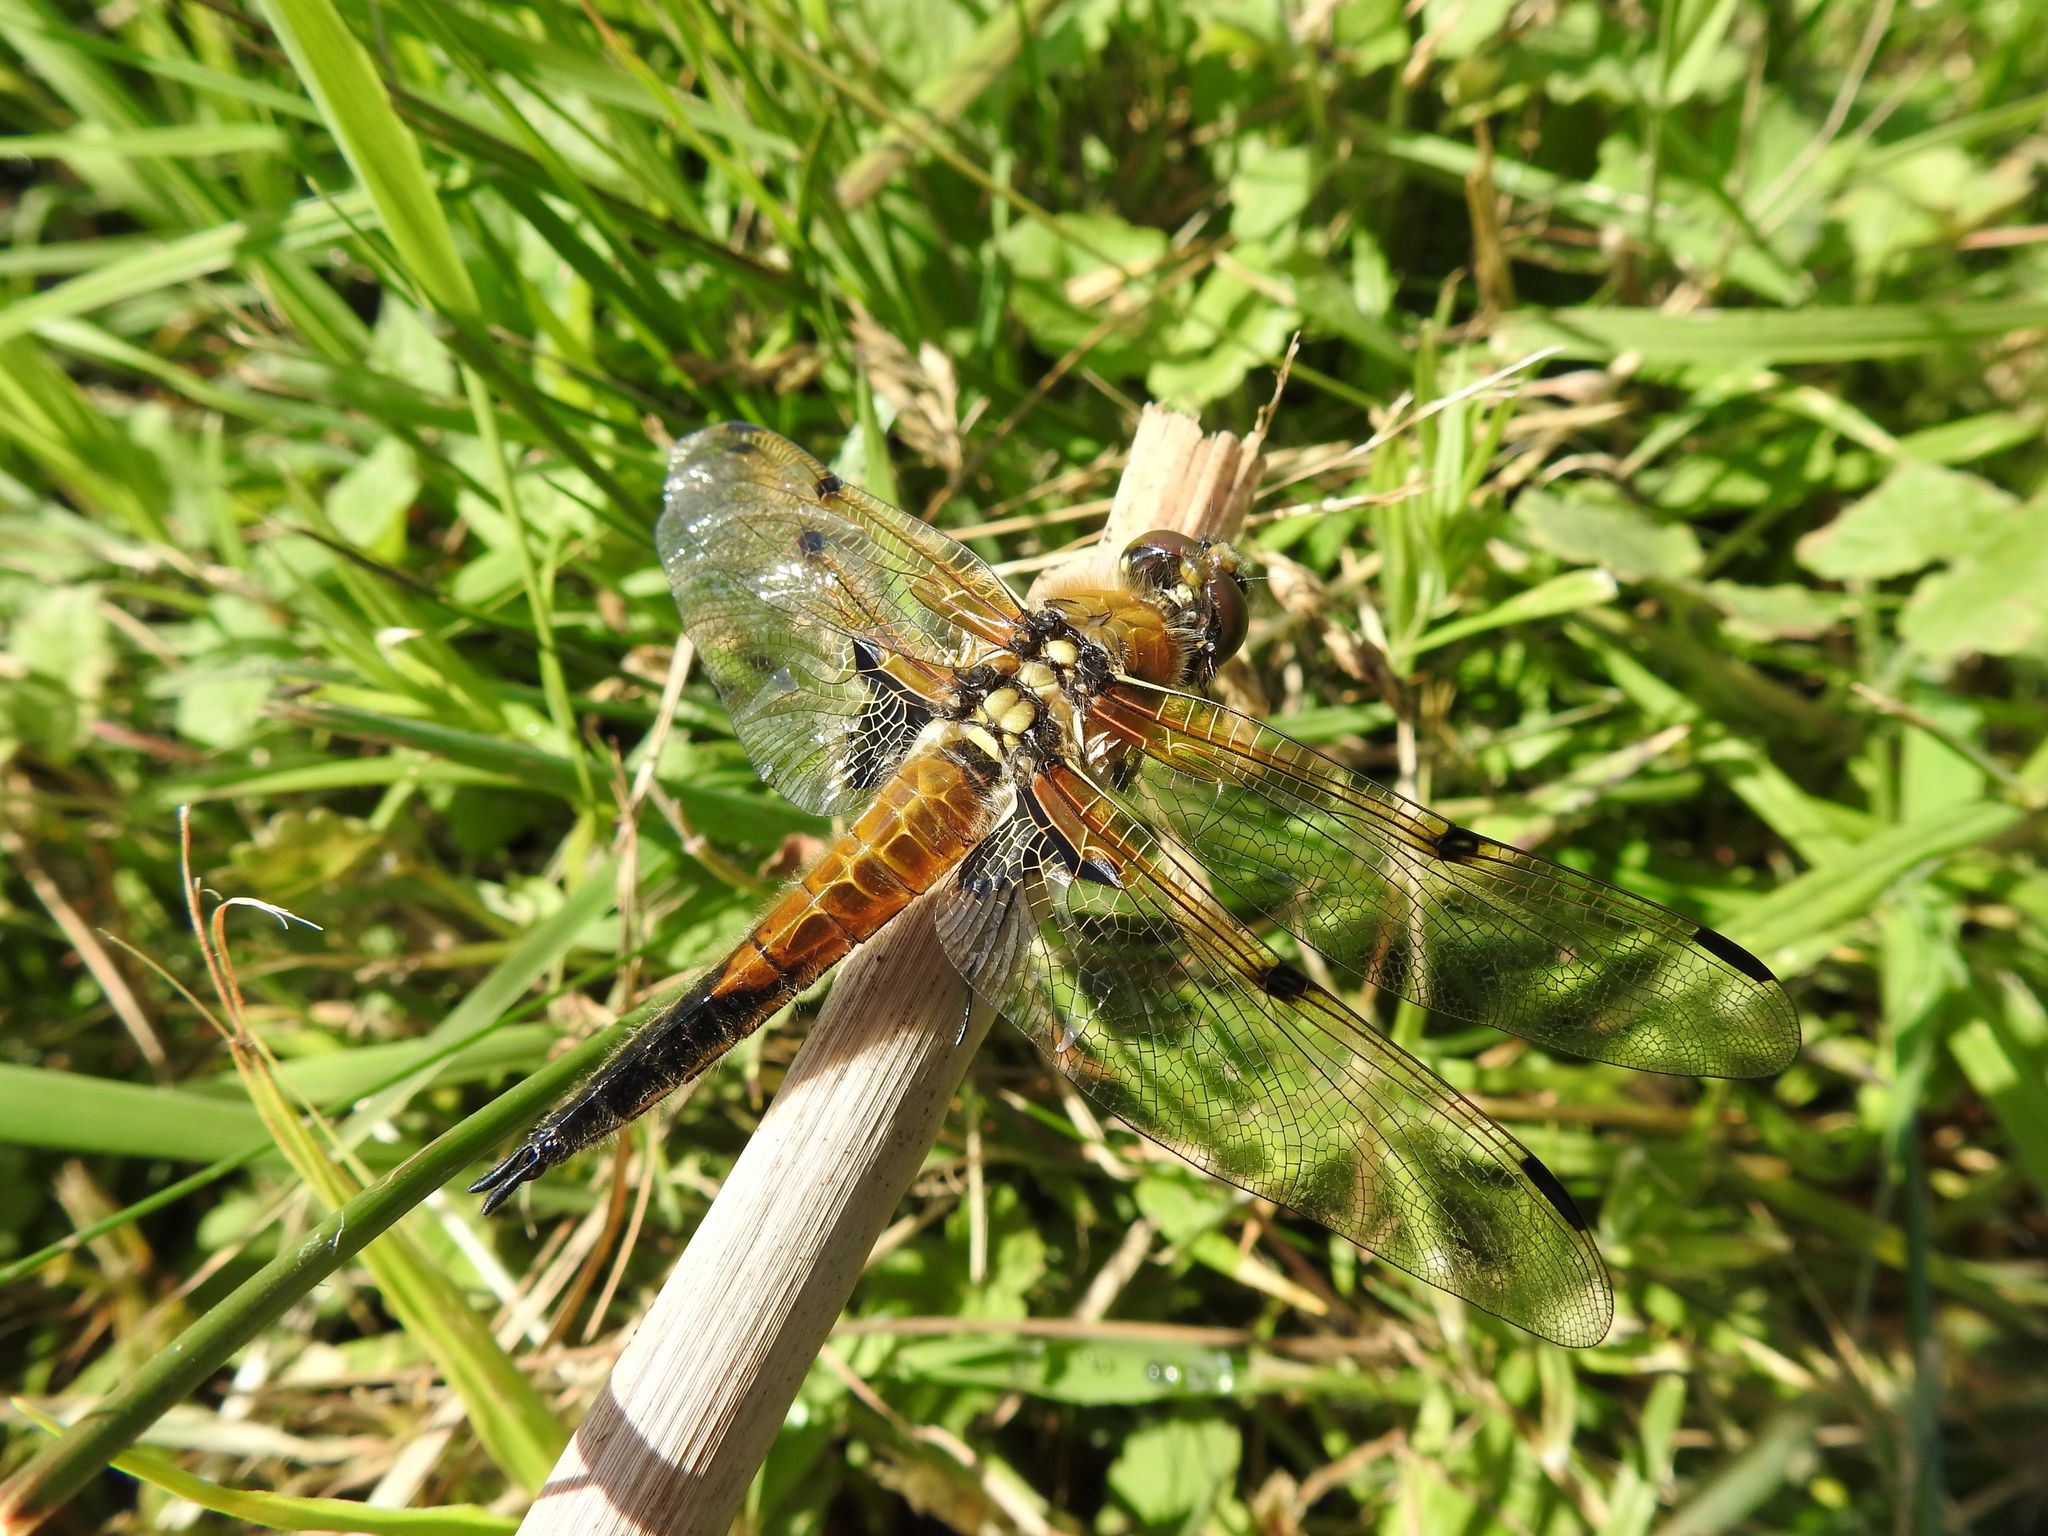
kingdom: Animalia
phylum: Arthropoda
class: Insecta
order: Odonata
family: Libellulidae
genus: Libellula
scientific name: Libellula quadrimaculata
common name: Four-spotted chaser
